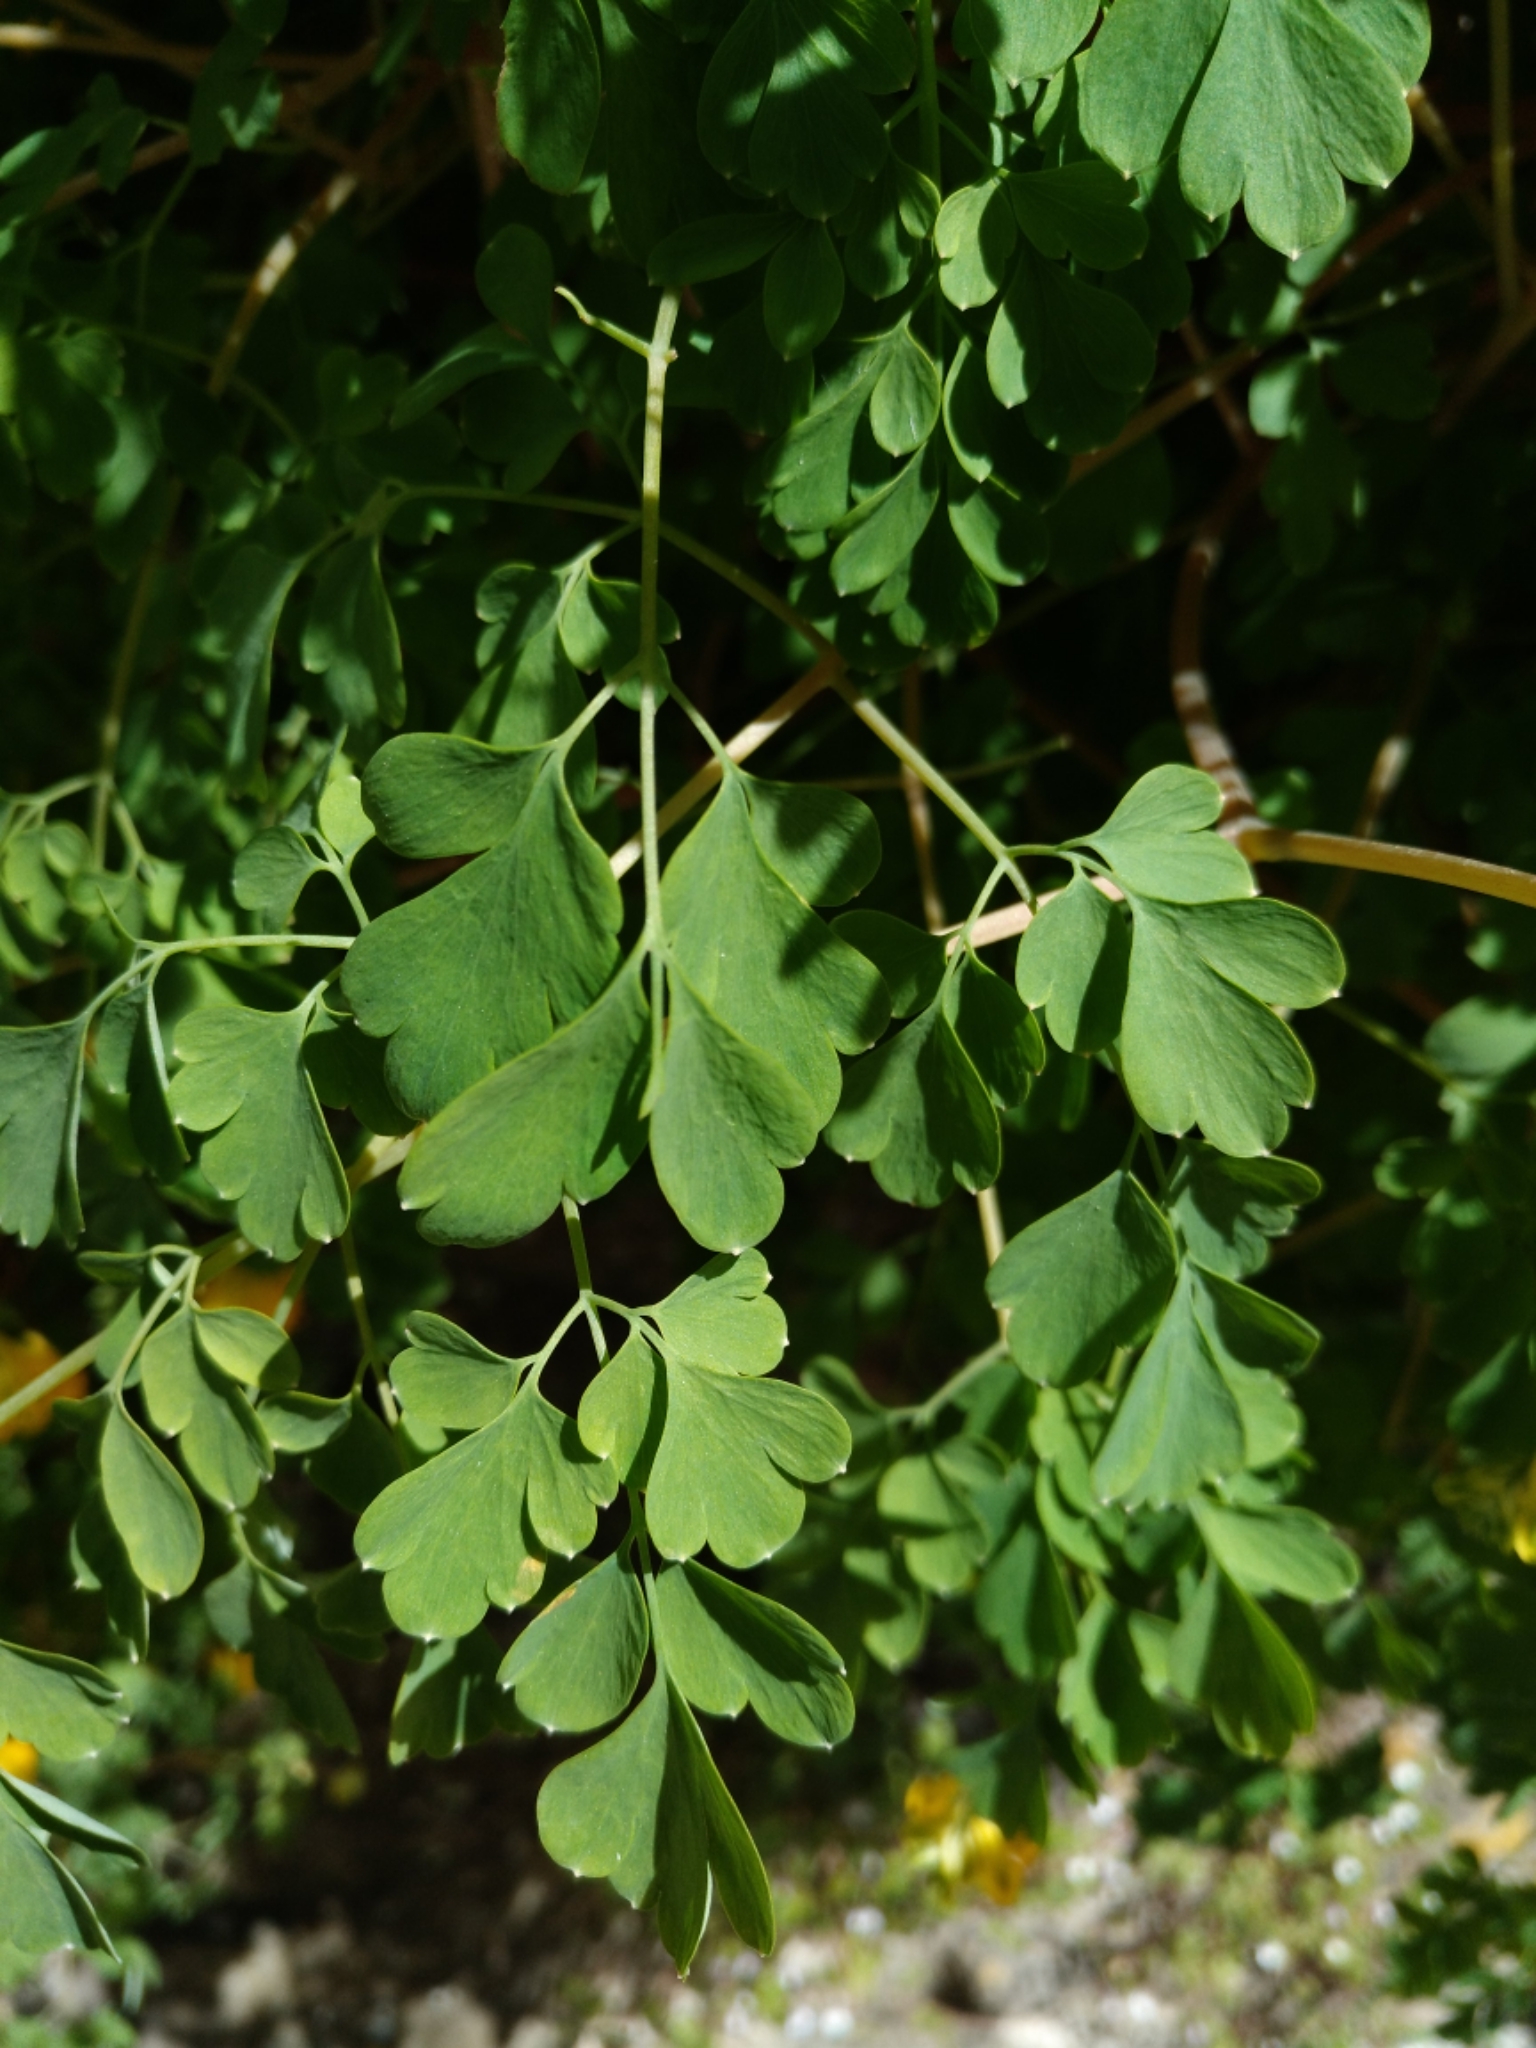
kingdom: Plantae
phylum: Tracheophyta
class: Magnoliopsida
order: Ranunculales
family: Papaveraceae
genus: Pseudofumaria
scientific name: Pseudofumaria lutea
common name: Yellow corydalis
